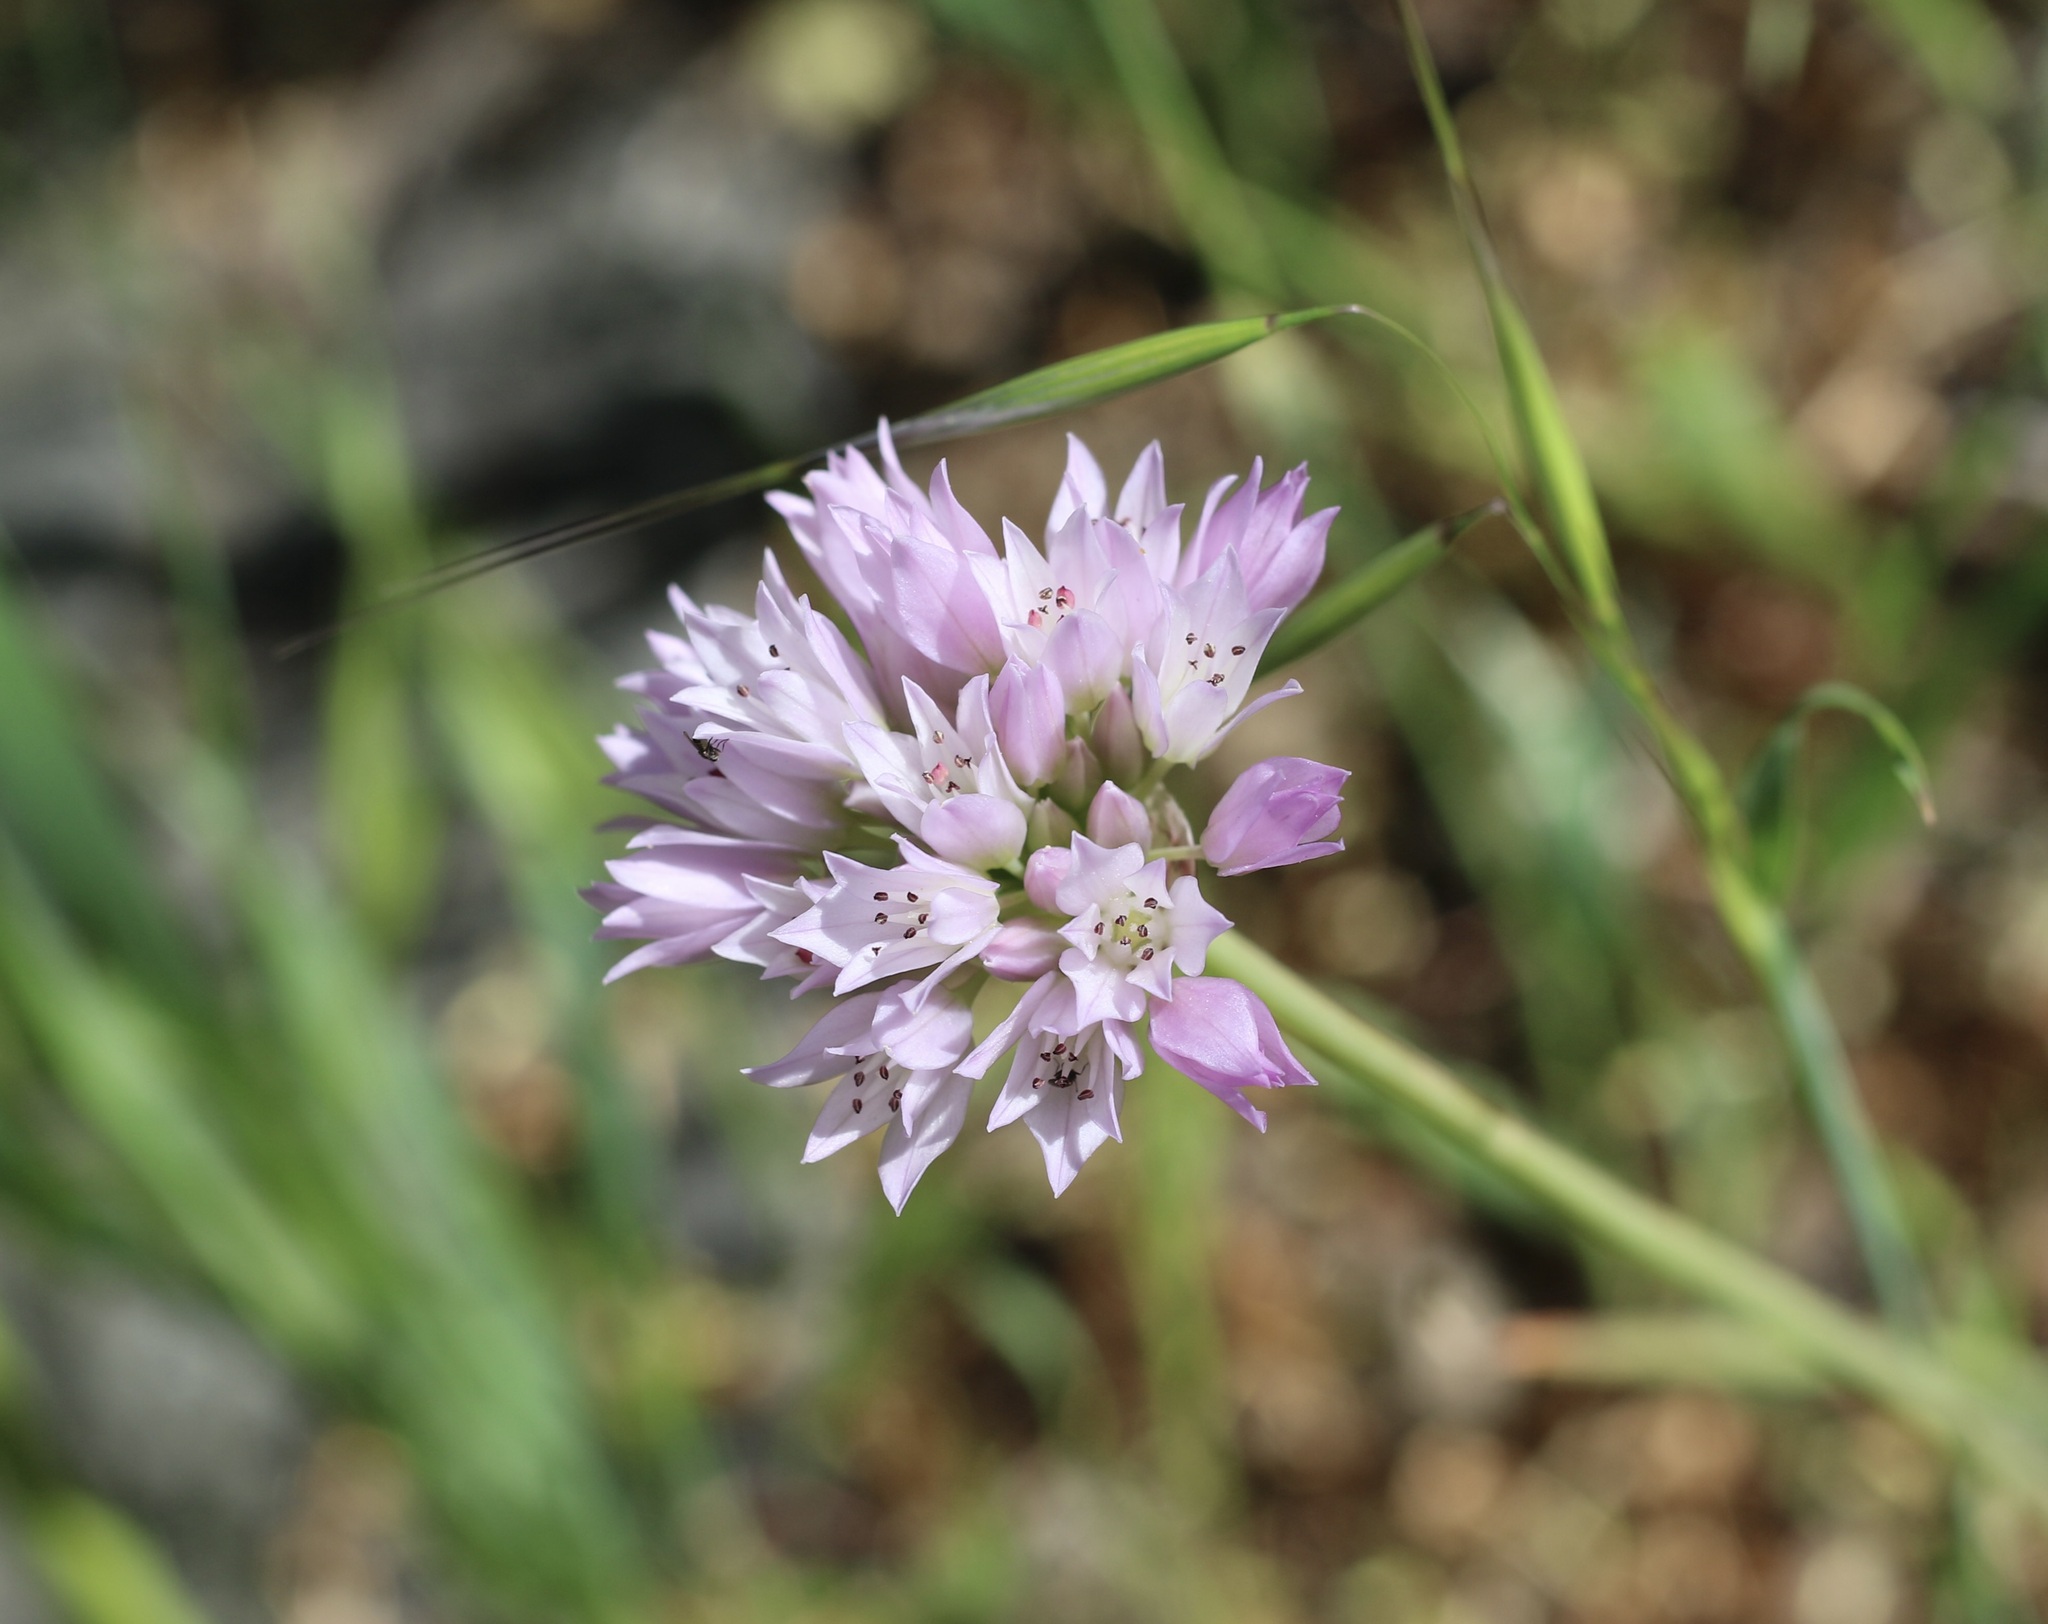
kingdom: Plantae
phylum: Tracheophyta
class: Liliopsida
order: Asparagales
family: Amaryllidaceae
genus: Allium
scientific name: Allium serra
